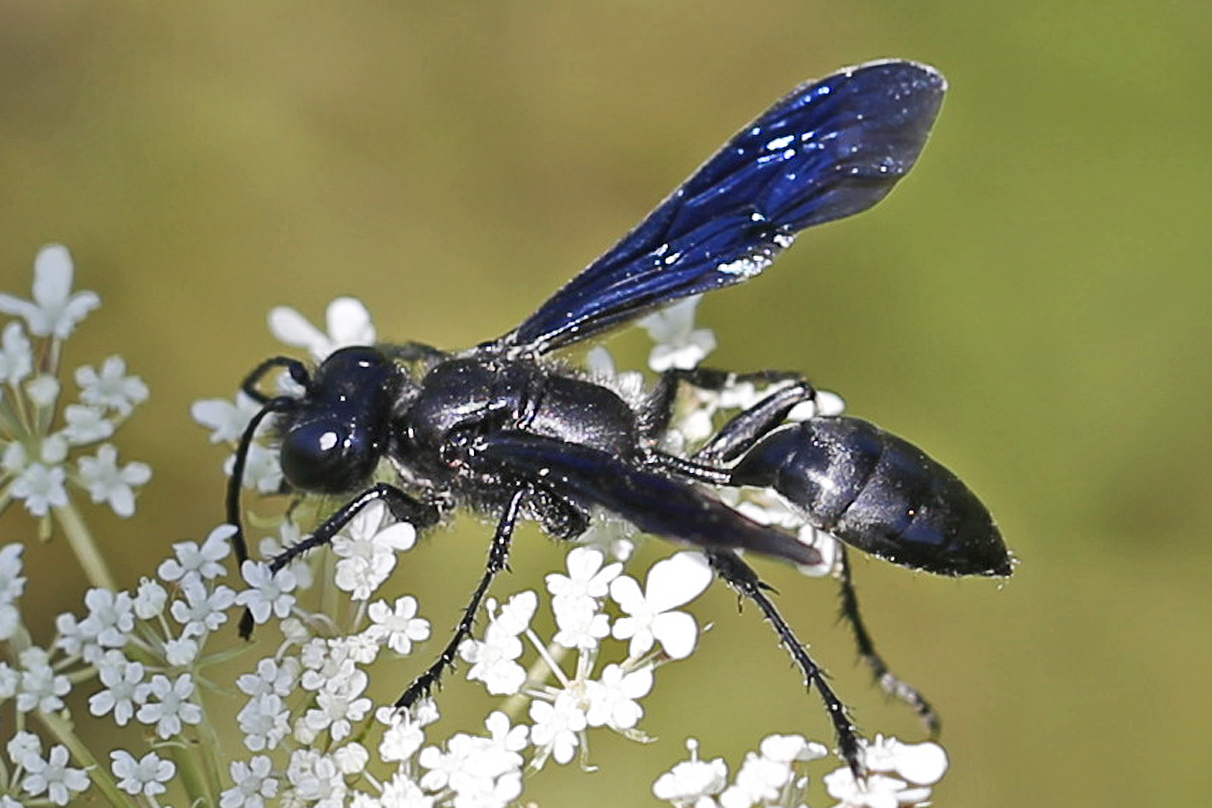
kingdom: Animalia
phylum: Arthropoda
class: Insecta
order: Hymenoptera
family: Sphecidae
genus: Isodontia
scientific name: Isodontia philadelphica
